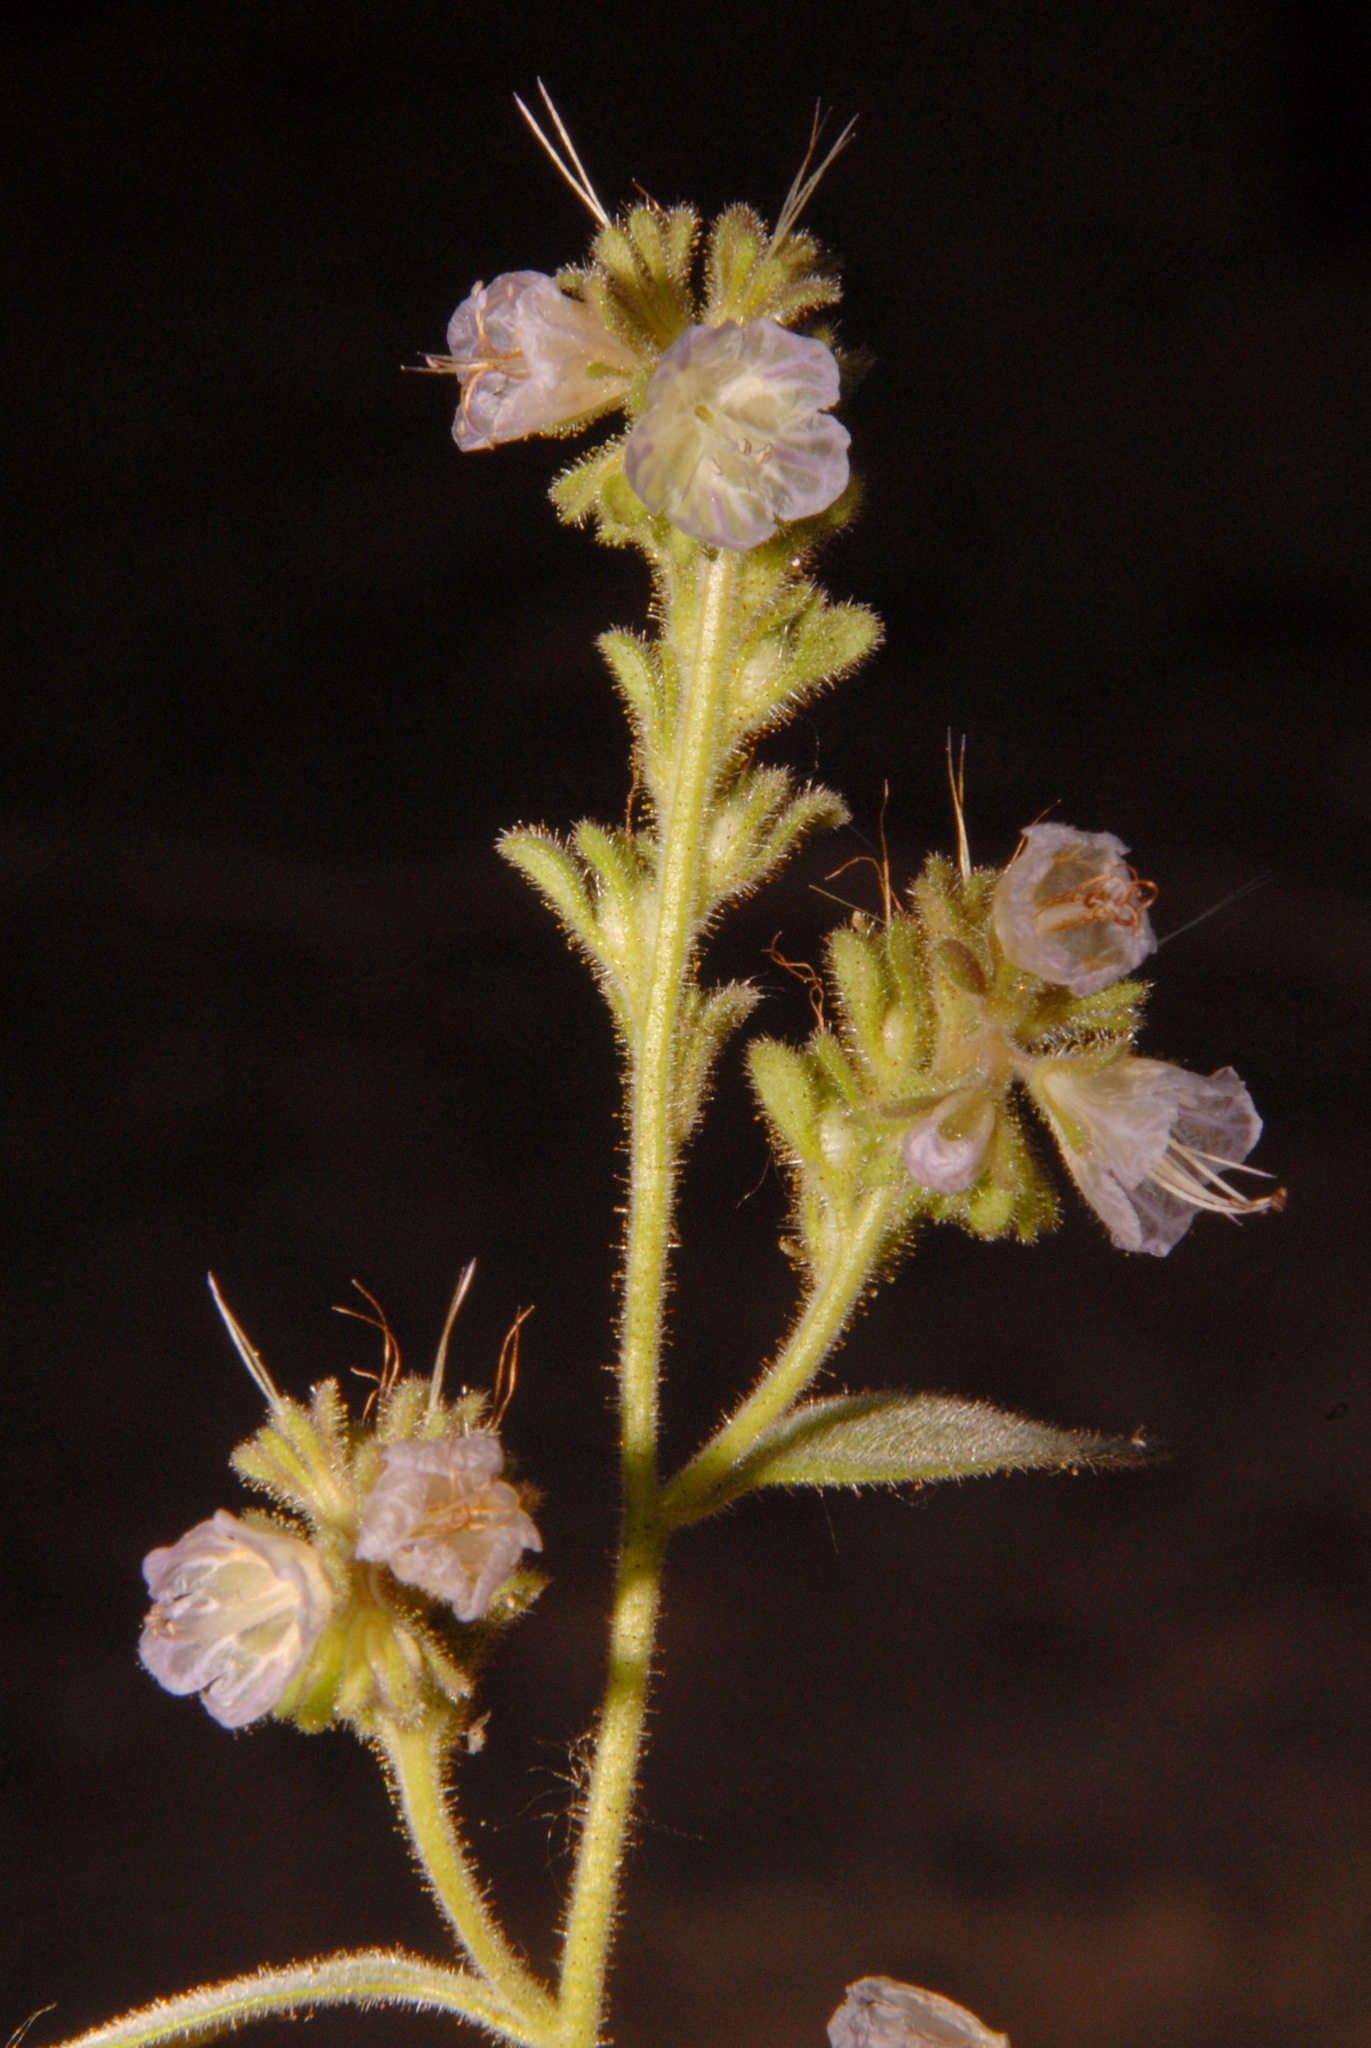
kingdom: Plantae
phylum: Tracheophyta
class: Magnoliopsida
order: Boraginales
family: Hydrophyllaceae
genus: Phacelia
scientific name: Phacelia purpusii
